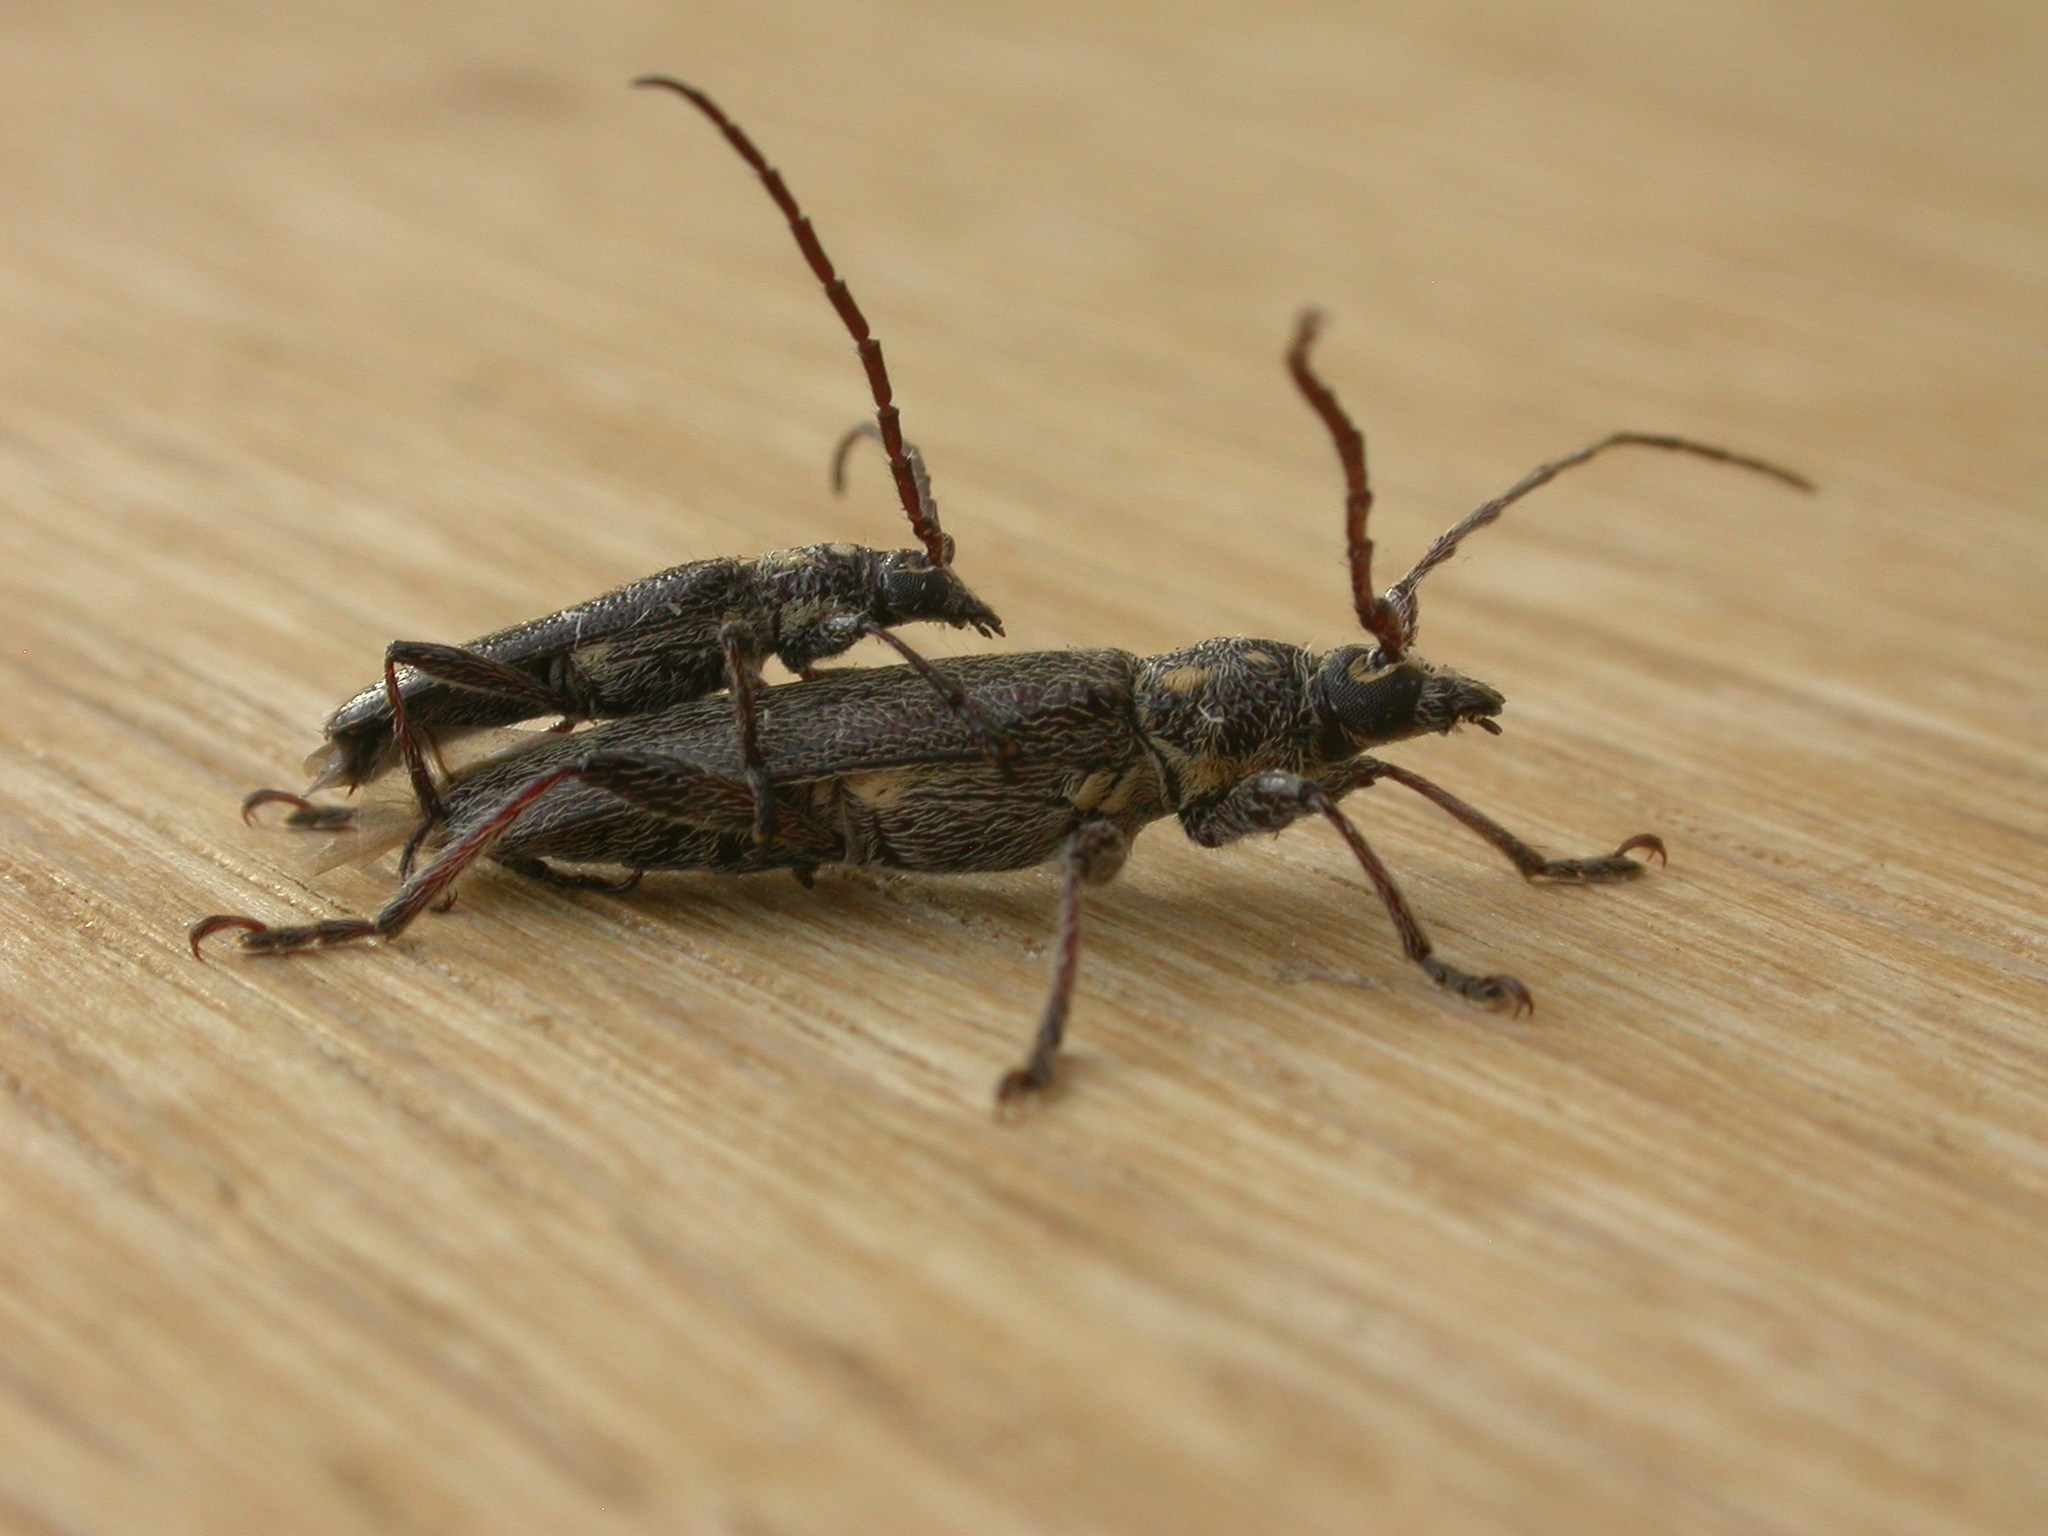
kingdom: Animalia
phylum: Arthropoda
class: Insecta
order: Coleoptera
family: Cerambycidae
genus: Strongylurus
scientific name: Strongylurus arduus
